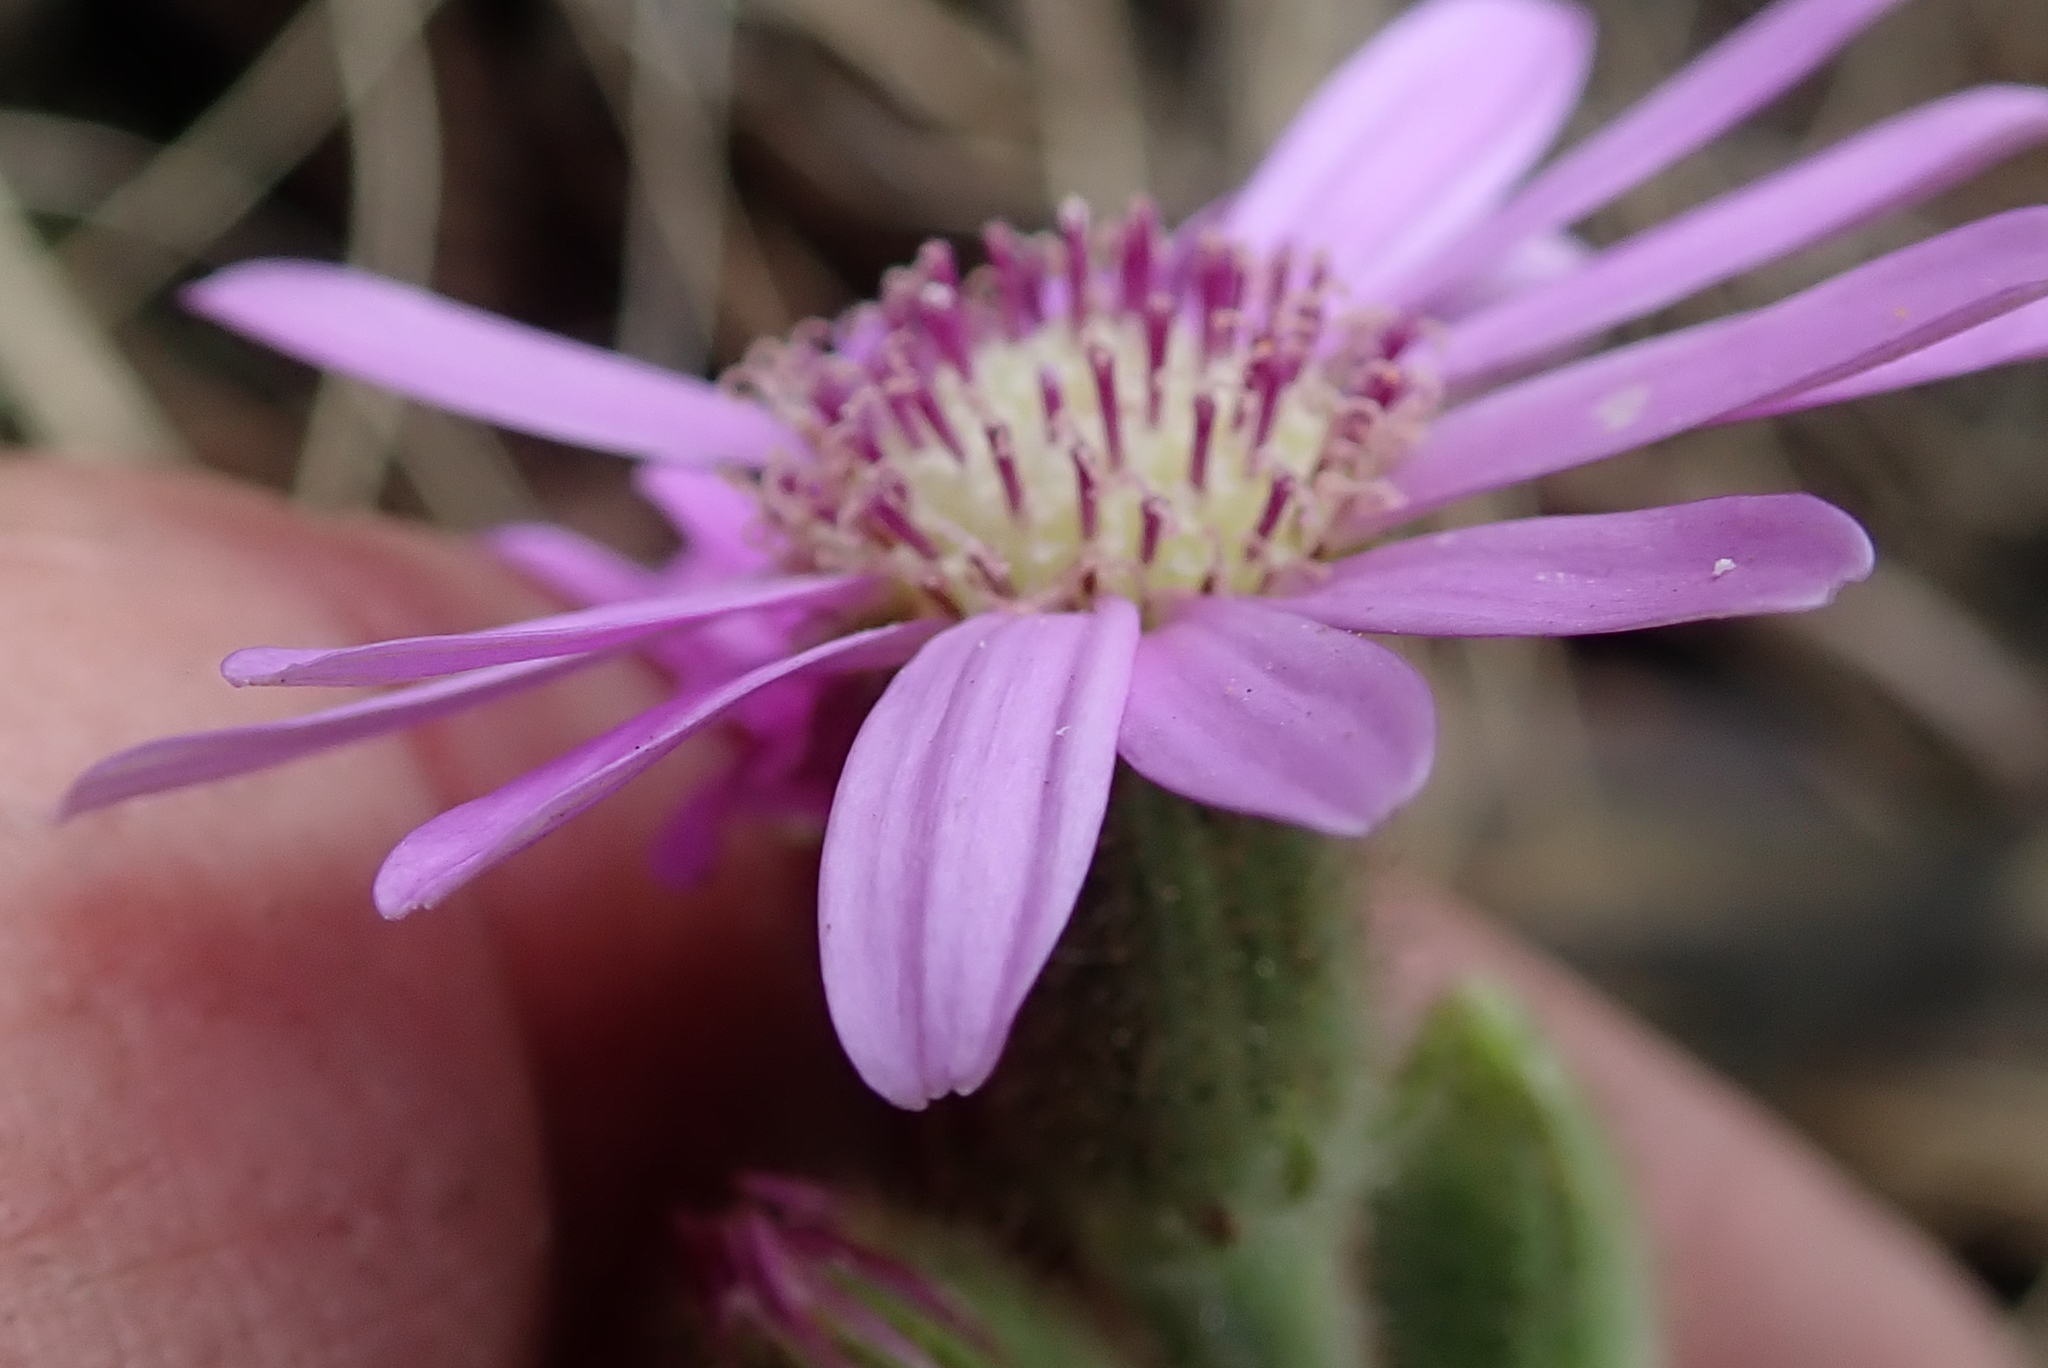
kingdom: Plantae
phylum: Tracheophyta
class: Magnoliopsida
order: Asterales
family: Asteraceae
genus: Senecio
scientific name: Senecio speciosus
